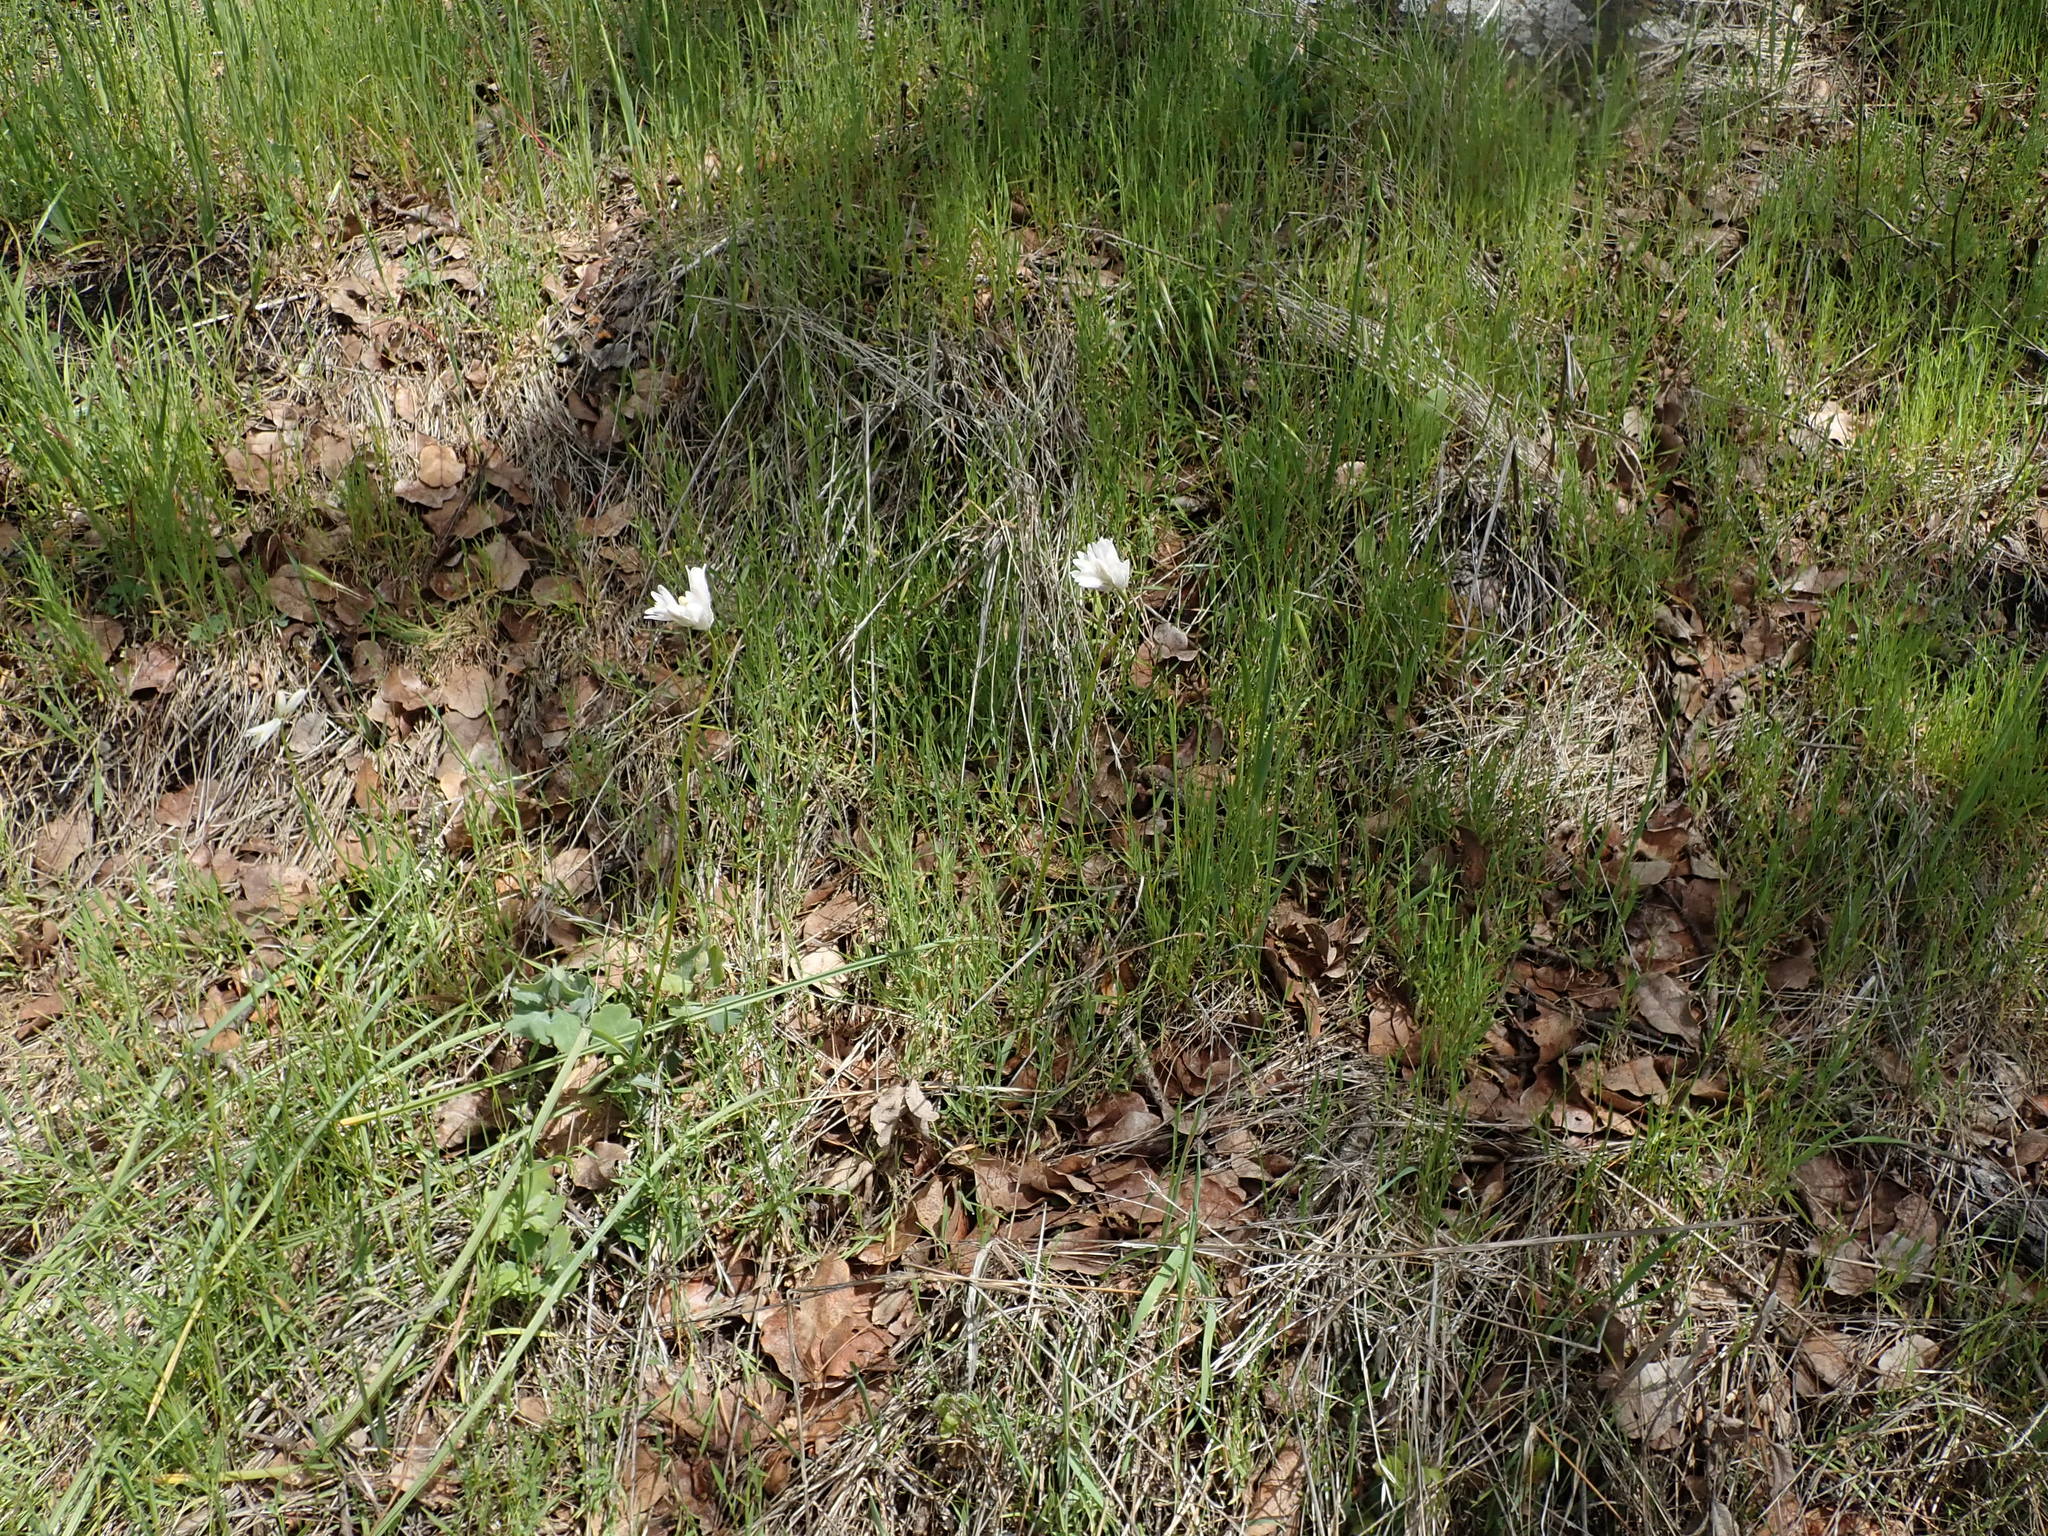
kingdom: Plantae
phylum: Tracheophyta
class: Liliopsida
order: Asparagales
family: Asparagaceae
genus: Dipterostemon
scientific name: Dipterostemon capitatus
